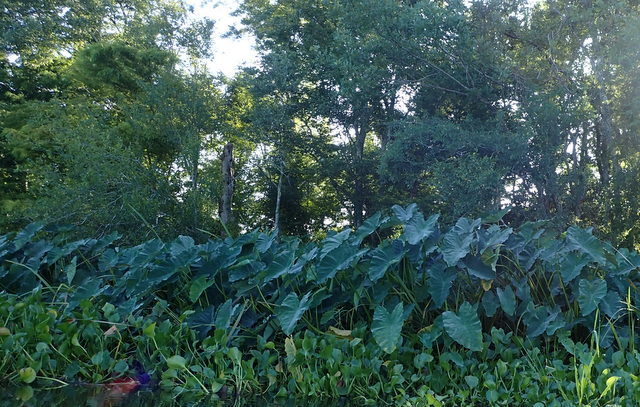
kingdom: Plantae
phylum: Tracheophyta
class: Liliopsida
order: Alismatales
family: Araceae
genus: Colocasia
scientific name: Colocasia esculenta
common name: Taro
